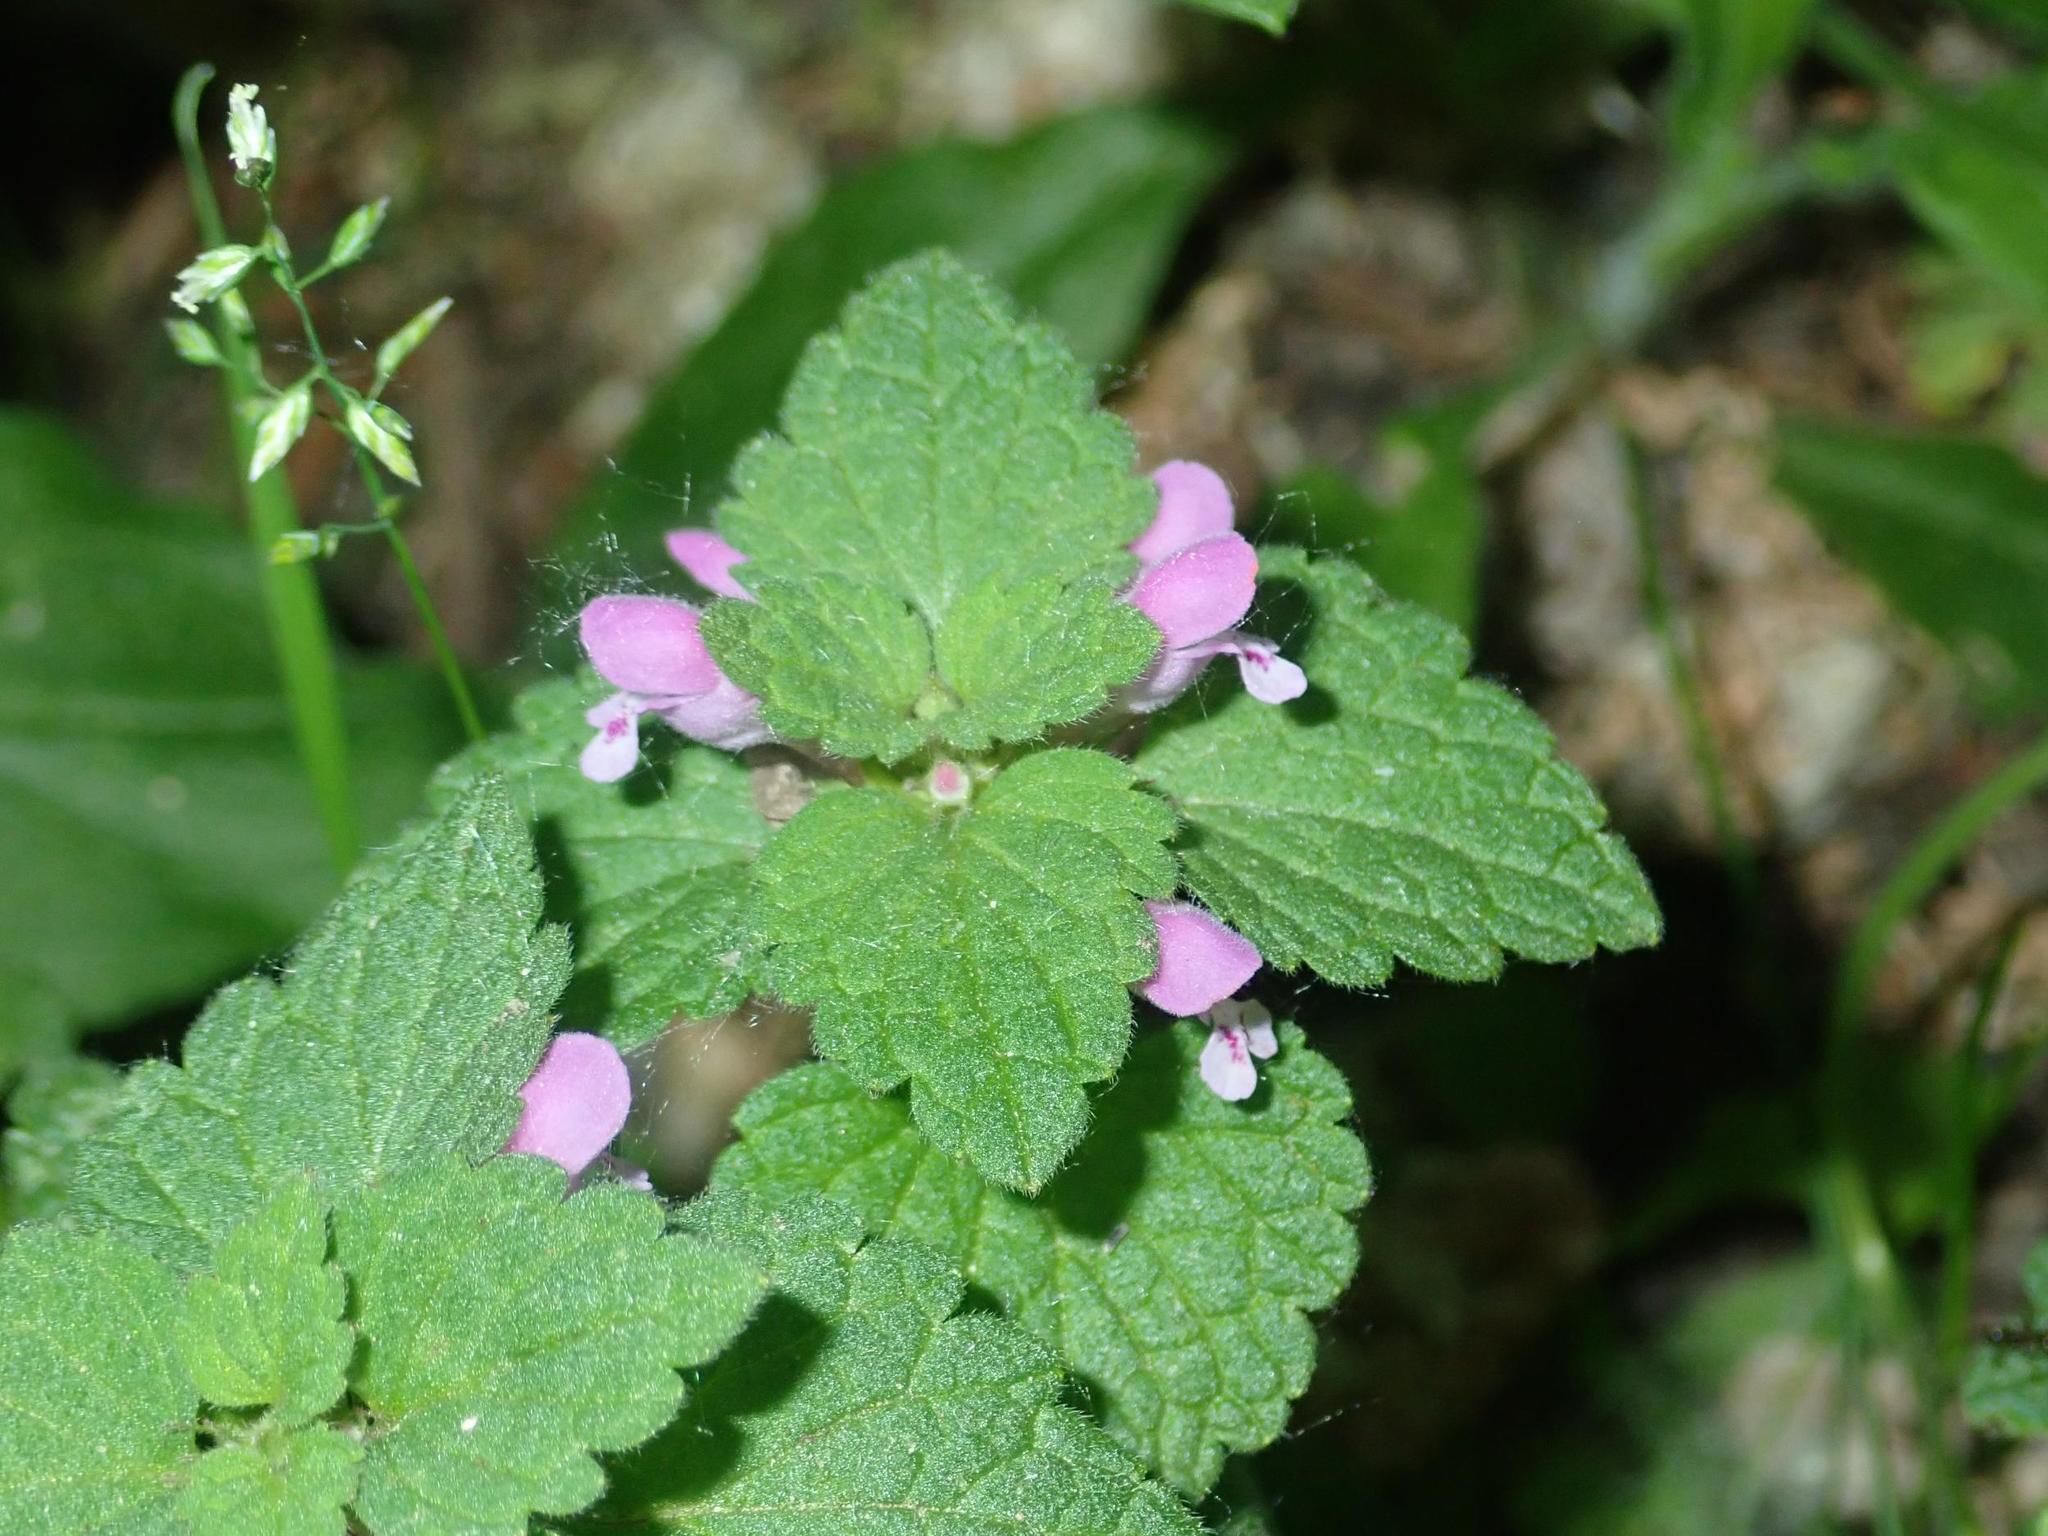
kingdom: Plantae
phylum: Tracheophyta
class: Magnoliopsida
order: Lamiales
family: Lamiaceae
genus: Lamium
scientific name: Lamium purpureum
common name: Red dead-nettle
